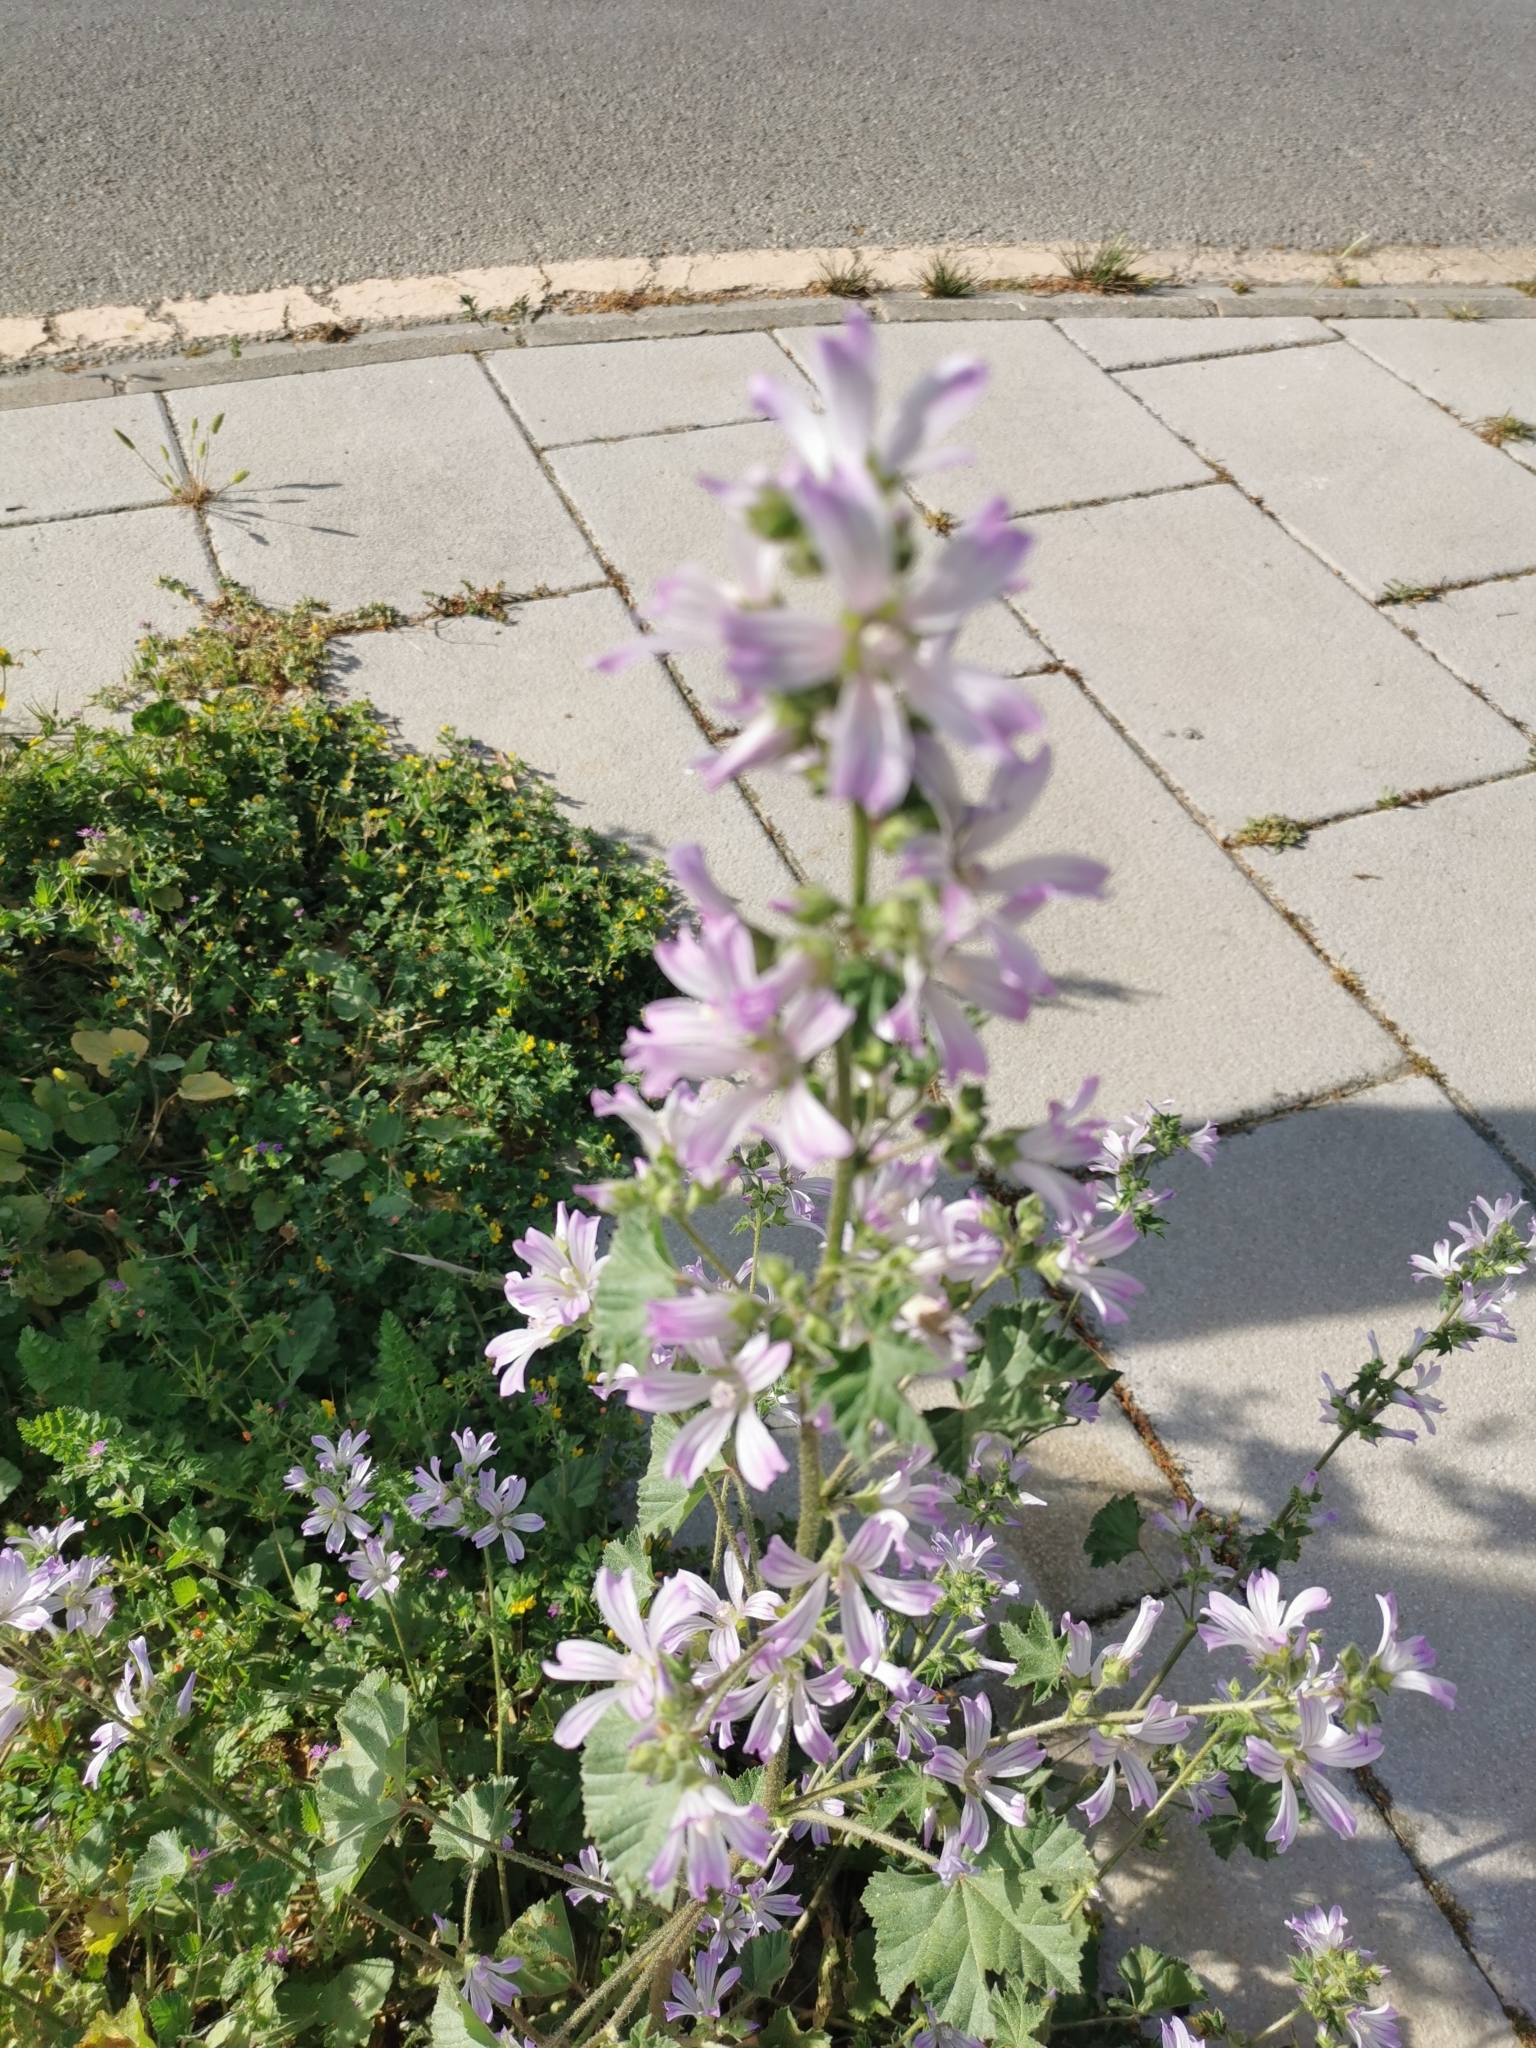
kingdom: Plantae
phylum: Tracheophyta
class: Magnoliopsida
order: Malvales
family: Malvaceae
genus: Malva
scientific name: Malva multiflora
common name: Cheeseweed
